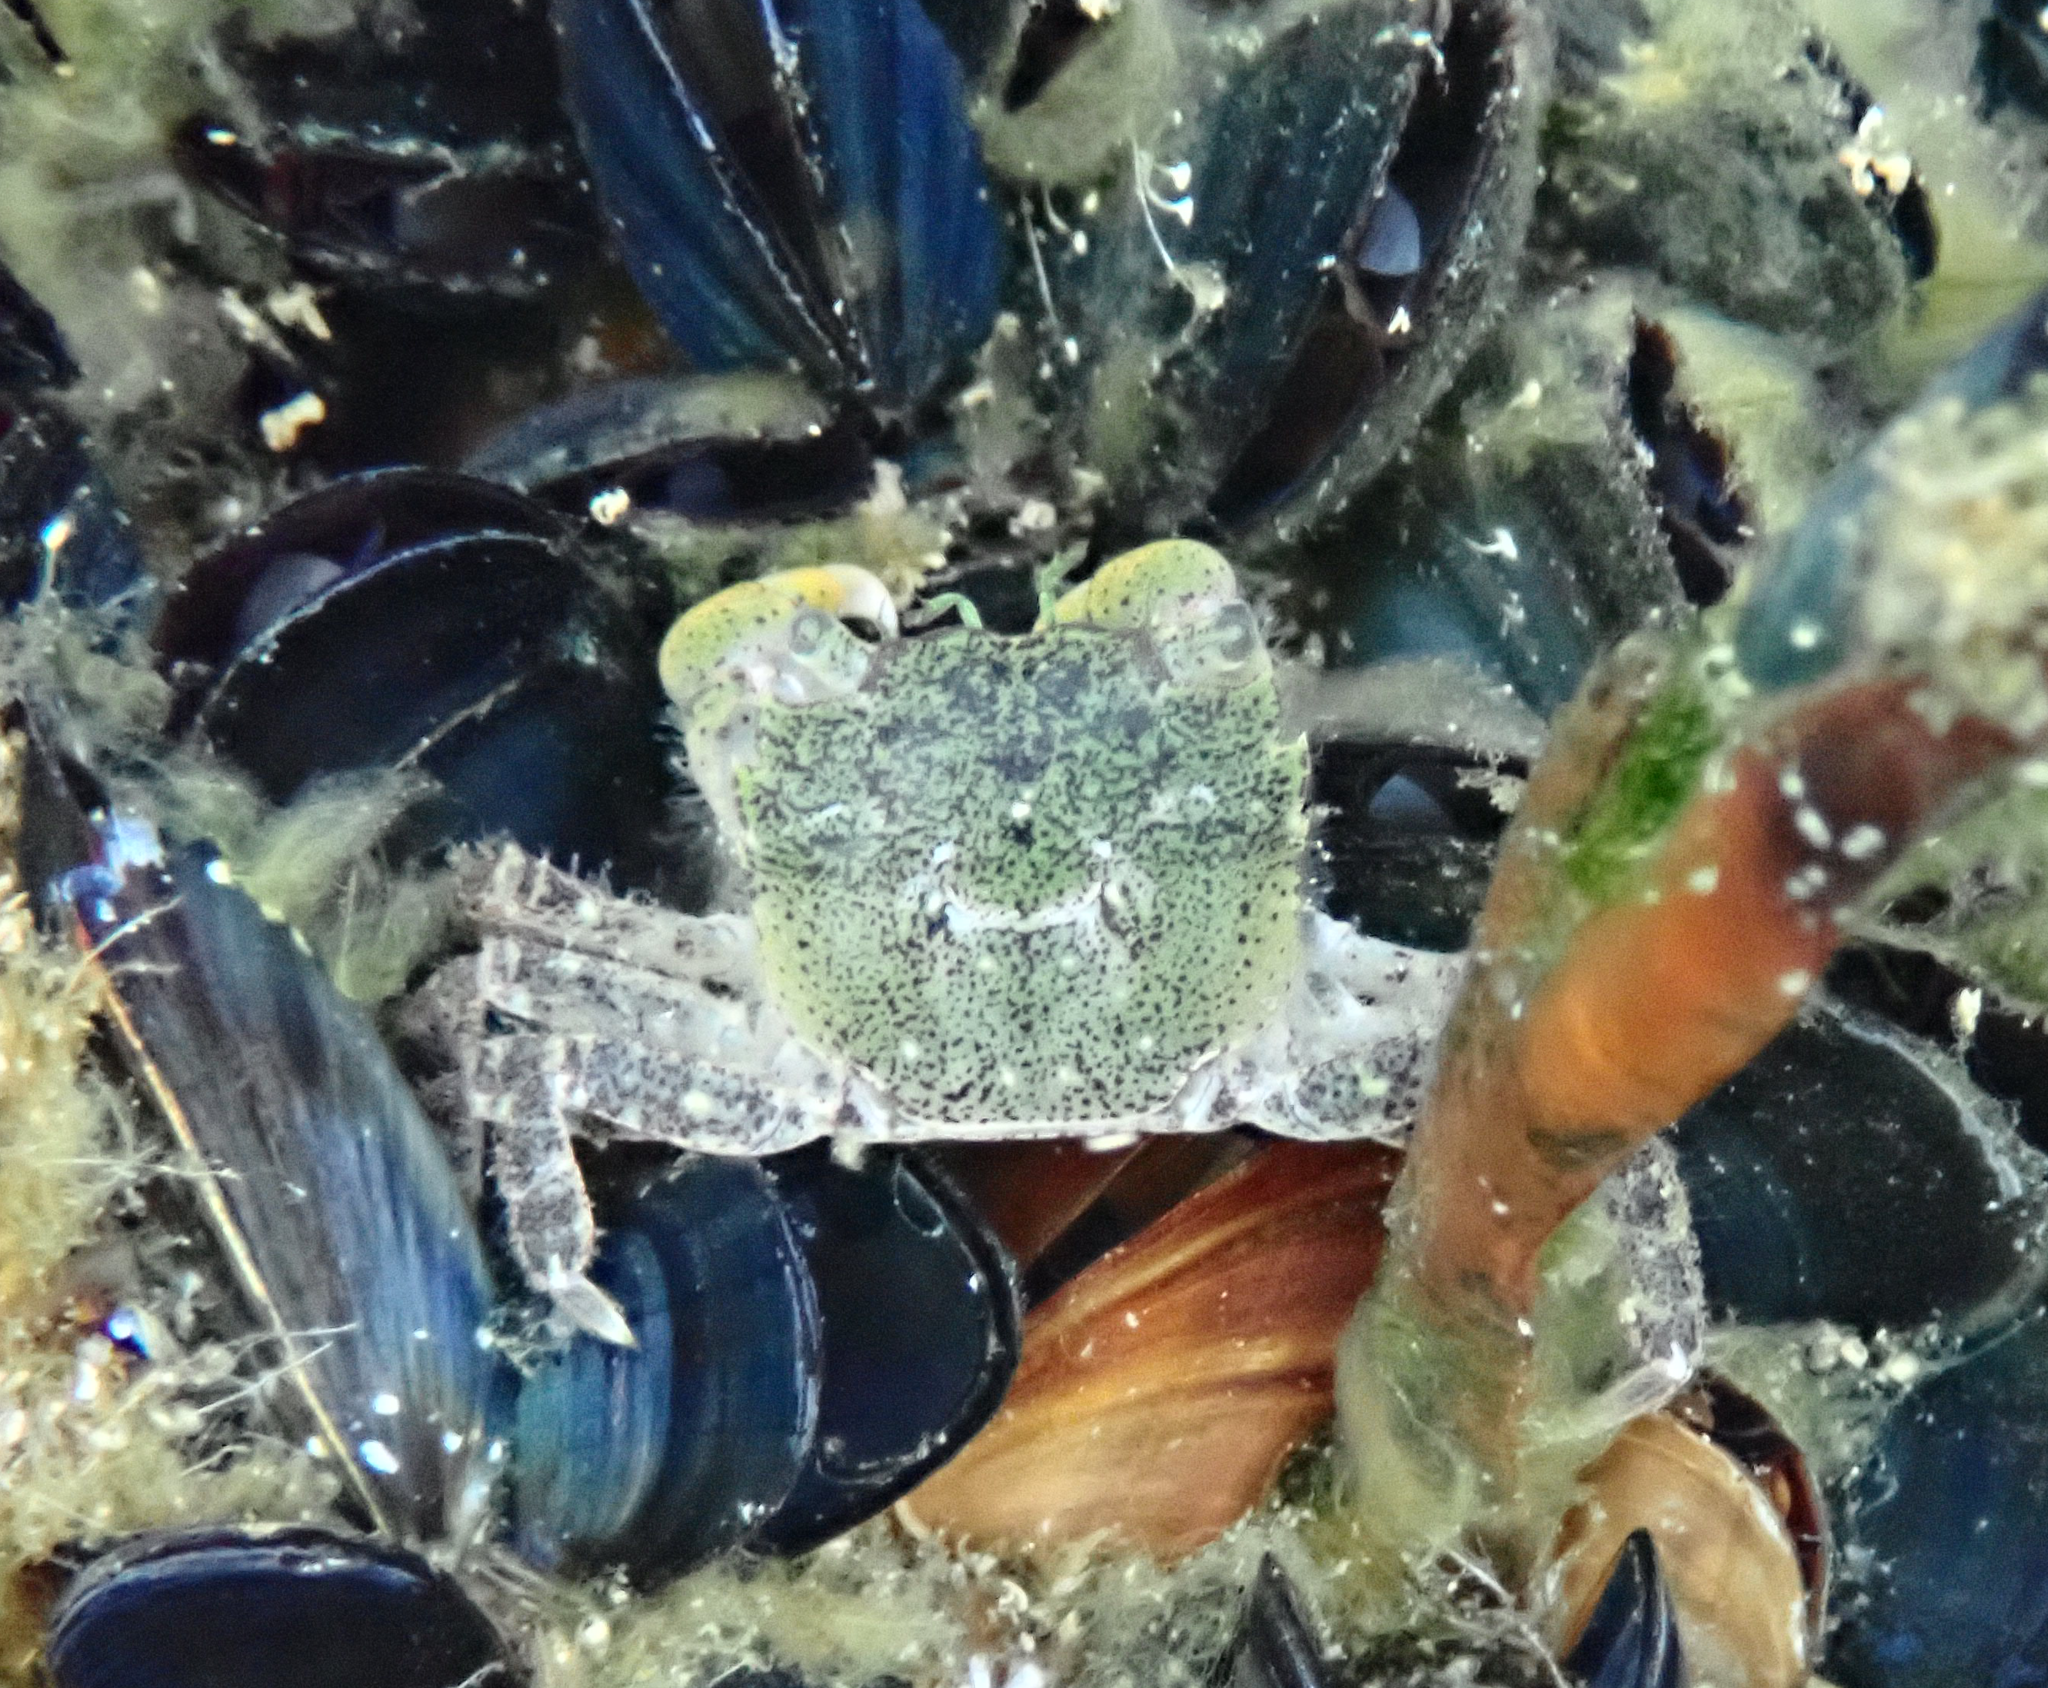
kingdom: Animalia
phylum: Arthropoda
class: Malacostraca
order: Decapoda
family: Varunidae
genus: Hemigrapsus
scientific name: Hemigrapsus oregonensis
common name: Yellow shore crab
